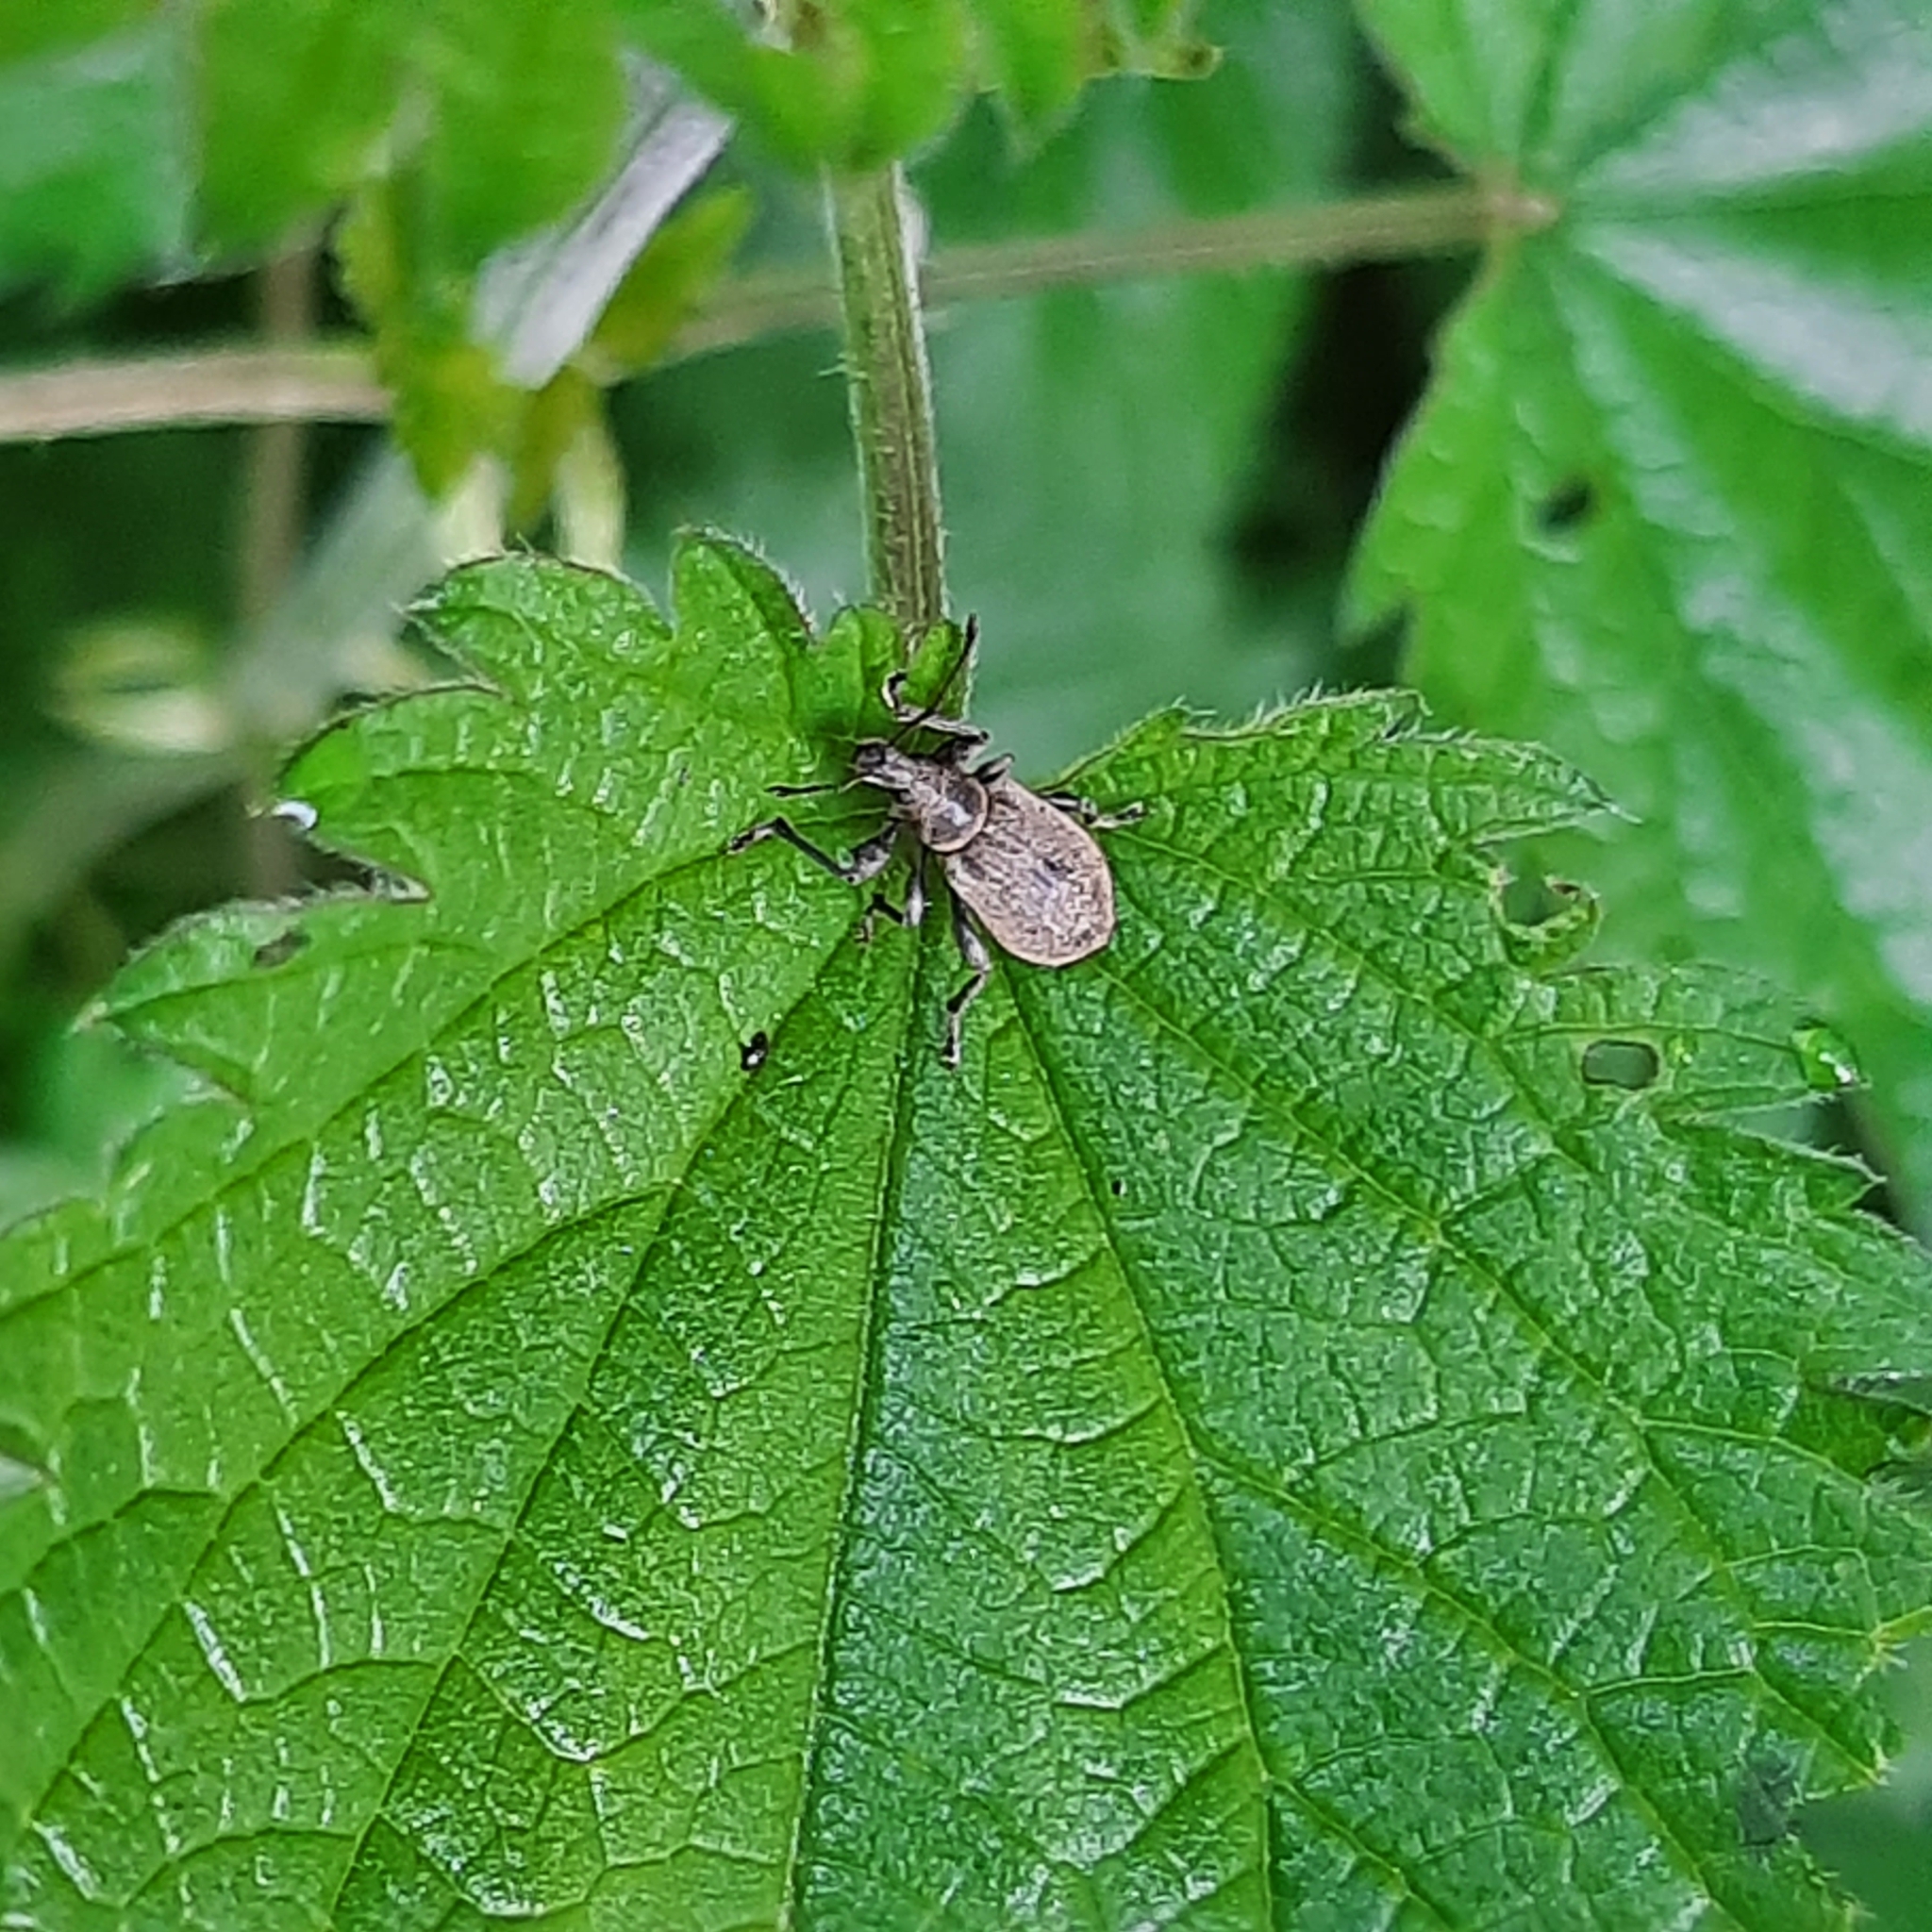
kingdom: Animalia
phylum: Arthropoda
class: Insecta
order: Coleoptera
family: Curculionidae
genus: Phyllobius
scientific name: Phyllobius pomaceus
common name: Green nettle weevil
